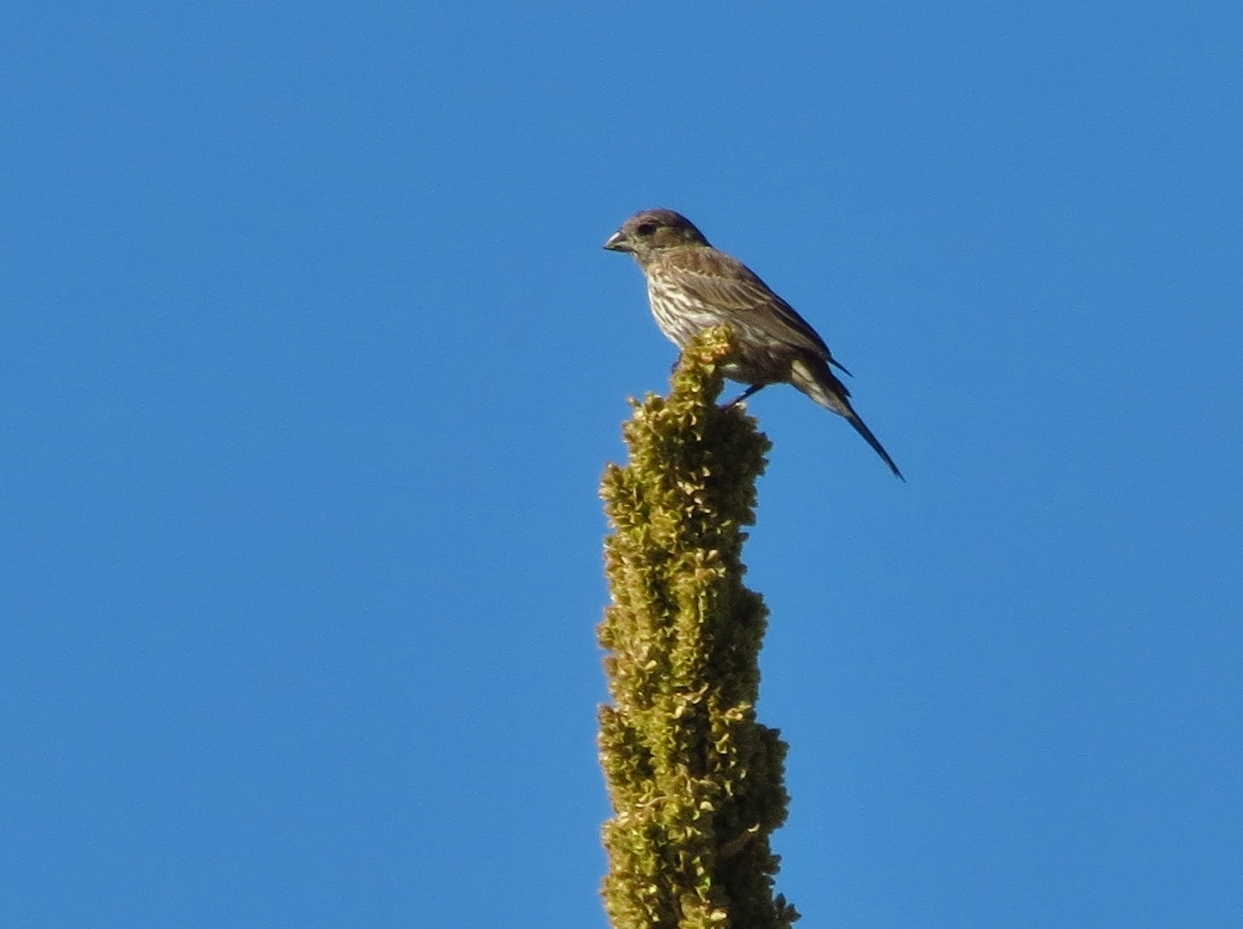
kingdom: Animalia
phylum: Chordata
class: Aves
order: Passeriformes
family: Fringillidae
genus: Haemorhous
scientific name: Haemorhous mexicanus
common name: House finch
